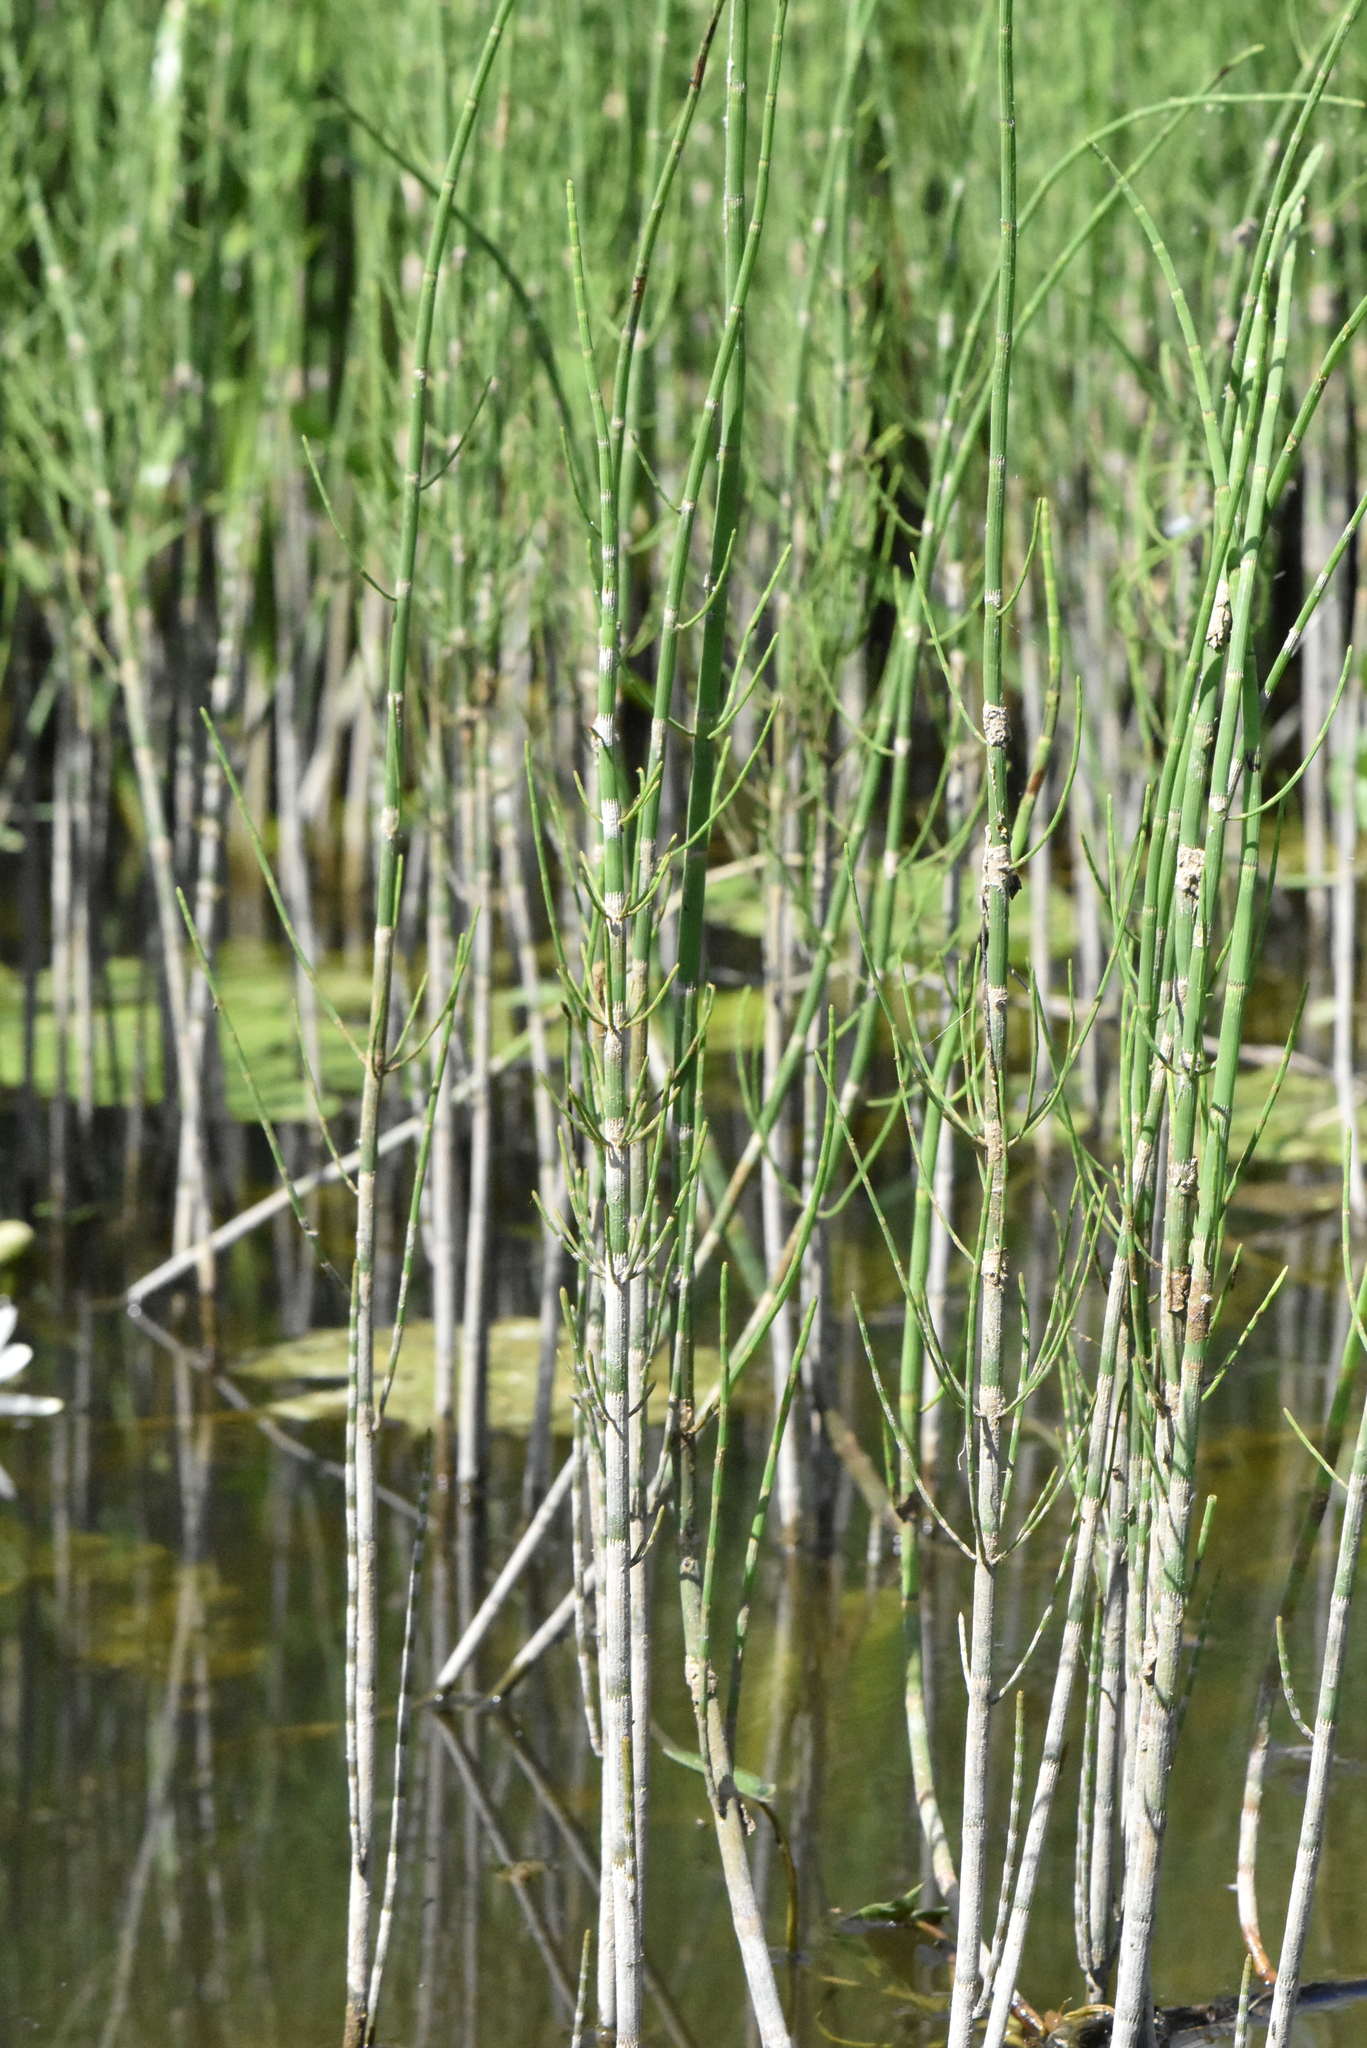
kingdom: Plantae
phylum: Tracheophyta
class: Polypodiopsida
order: Equisetales
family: Equisetaceae
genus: Equisetum
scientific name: Equisetum fluviatile
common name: Water horsetail
